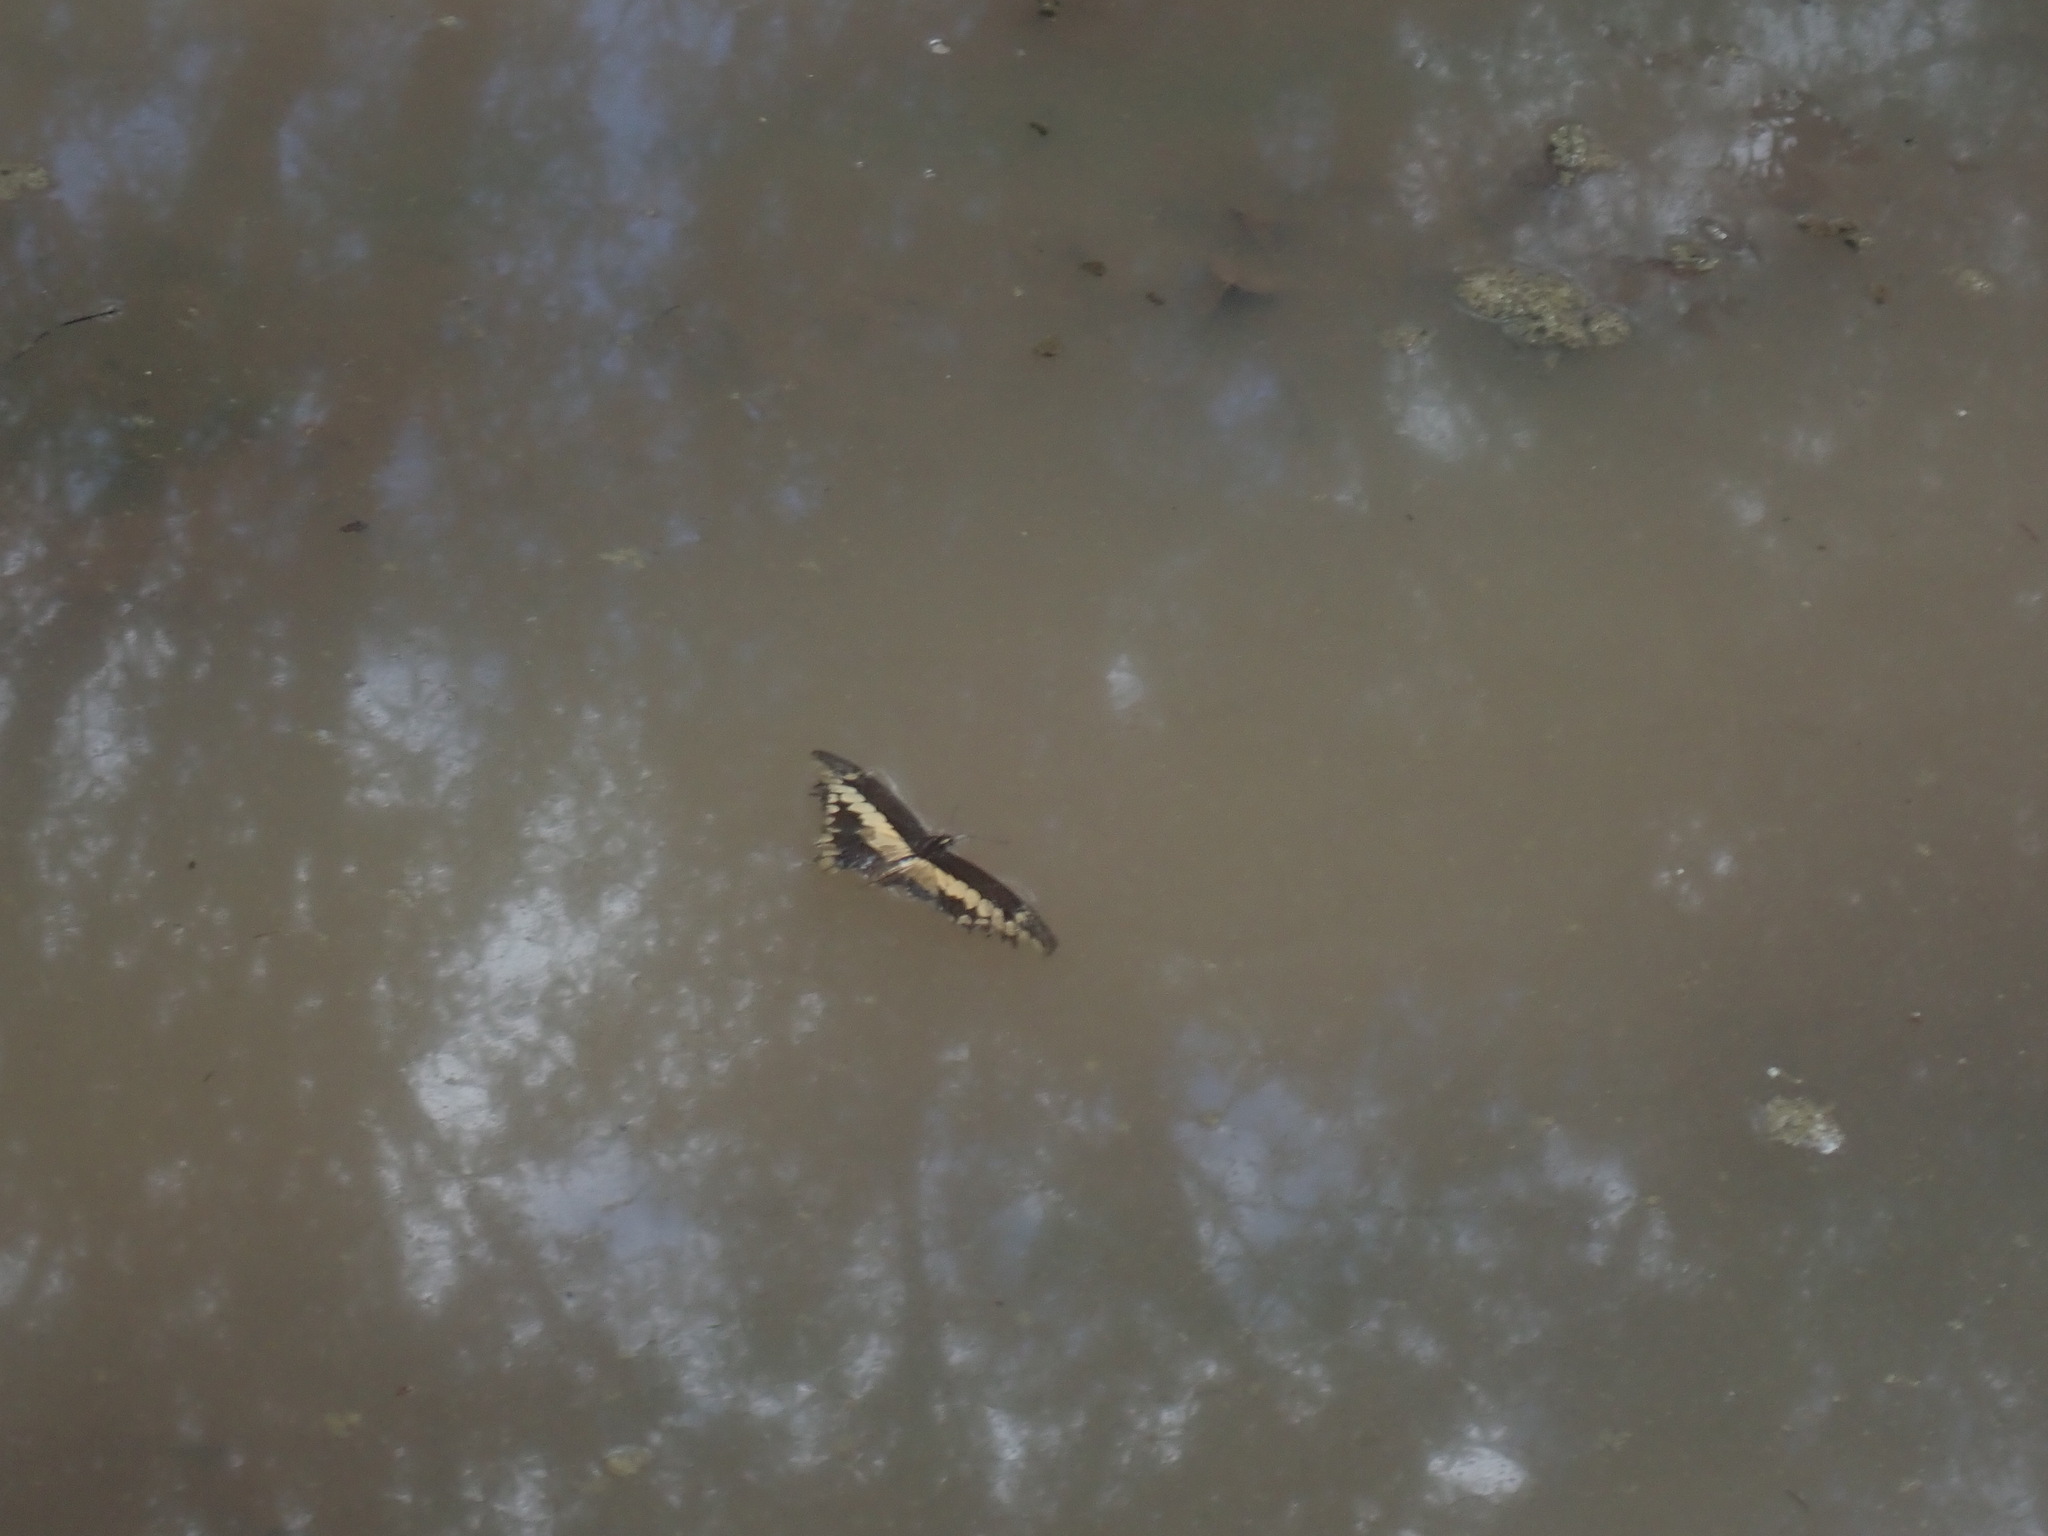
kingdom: Animalia
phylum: Arthropoda
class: Insecta
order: Lepidoptera
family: Papilionidae
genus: Papilio
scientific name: Papilio rumiko
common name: Western giant swallowtail
